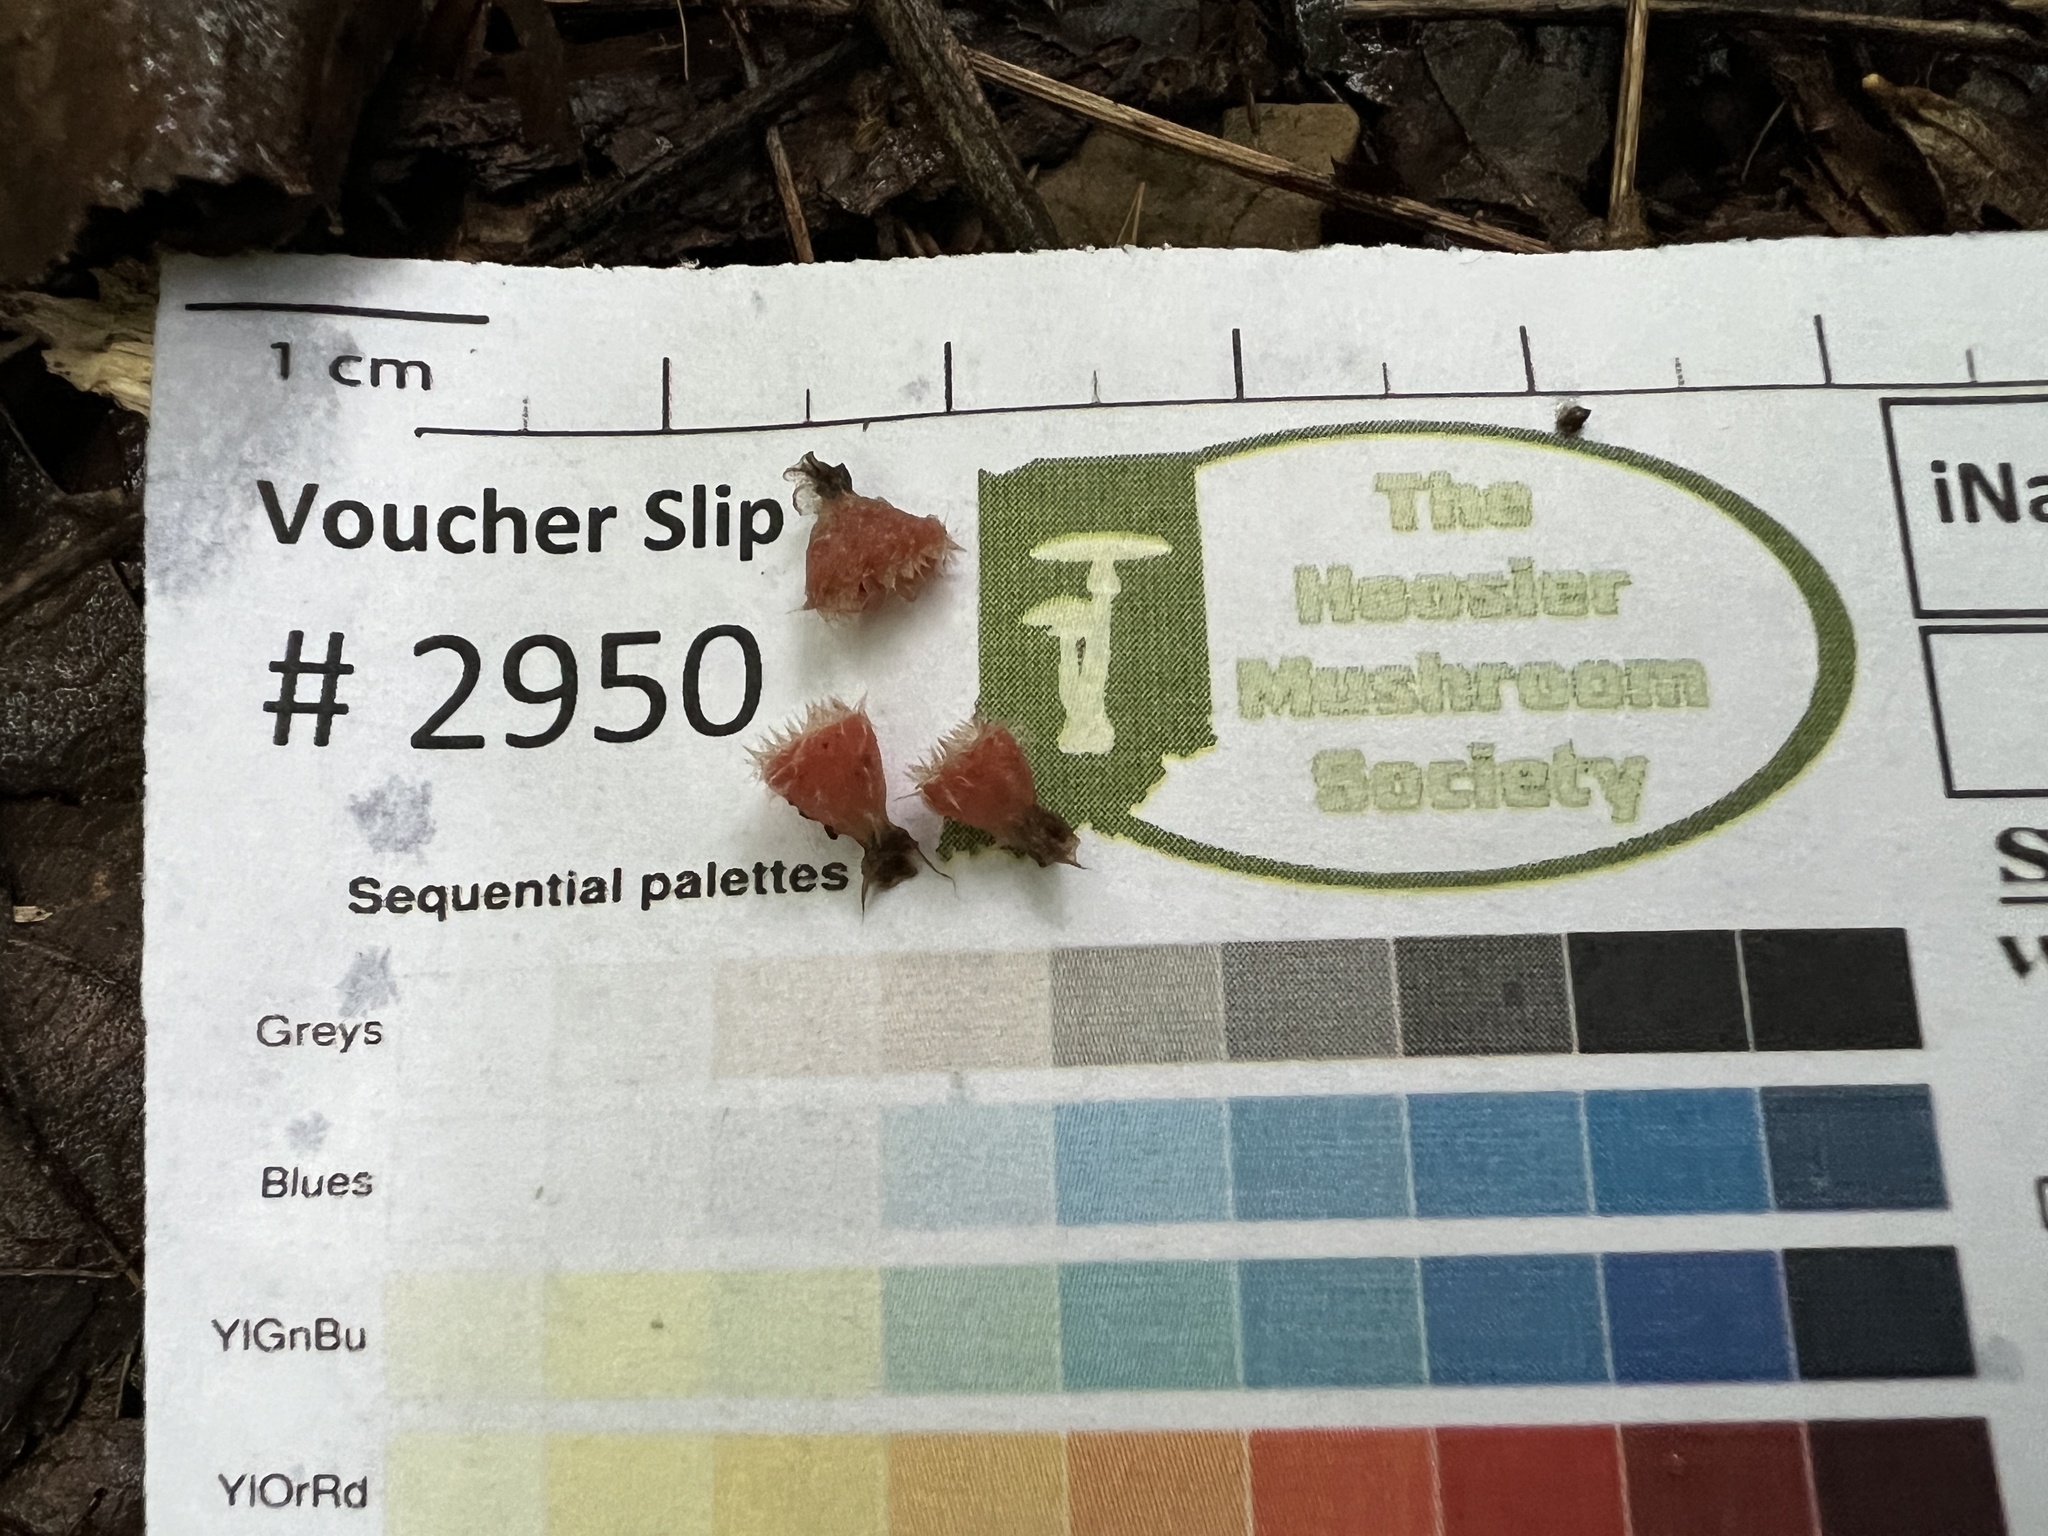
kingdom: Fungi
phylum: Ascomycota
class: Pezizomycetes
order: Pezizales
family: Sarcoscyphaceae
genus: Microstoma
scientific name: Microstoma floccosum
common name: Pink fringed faery cup
